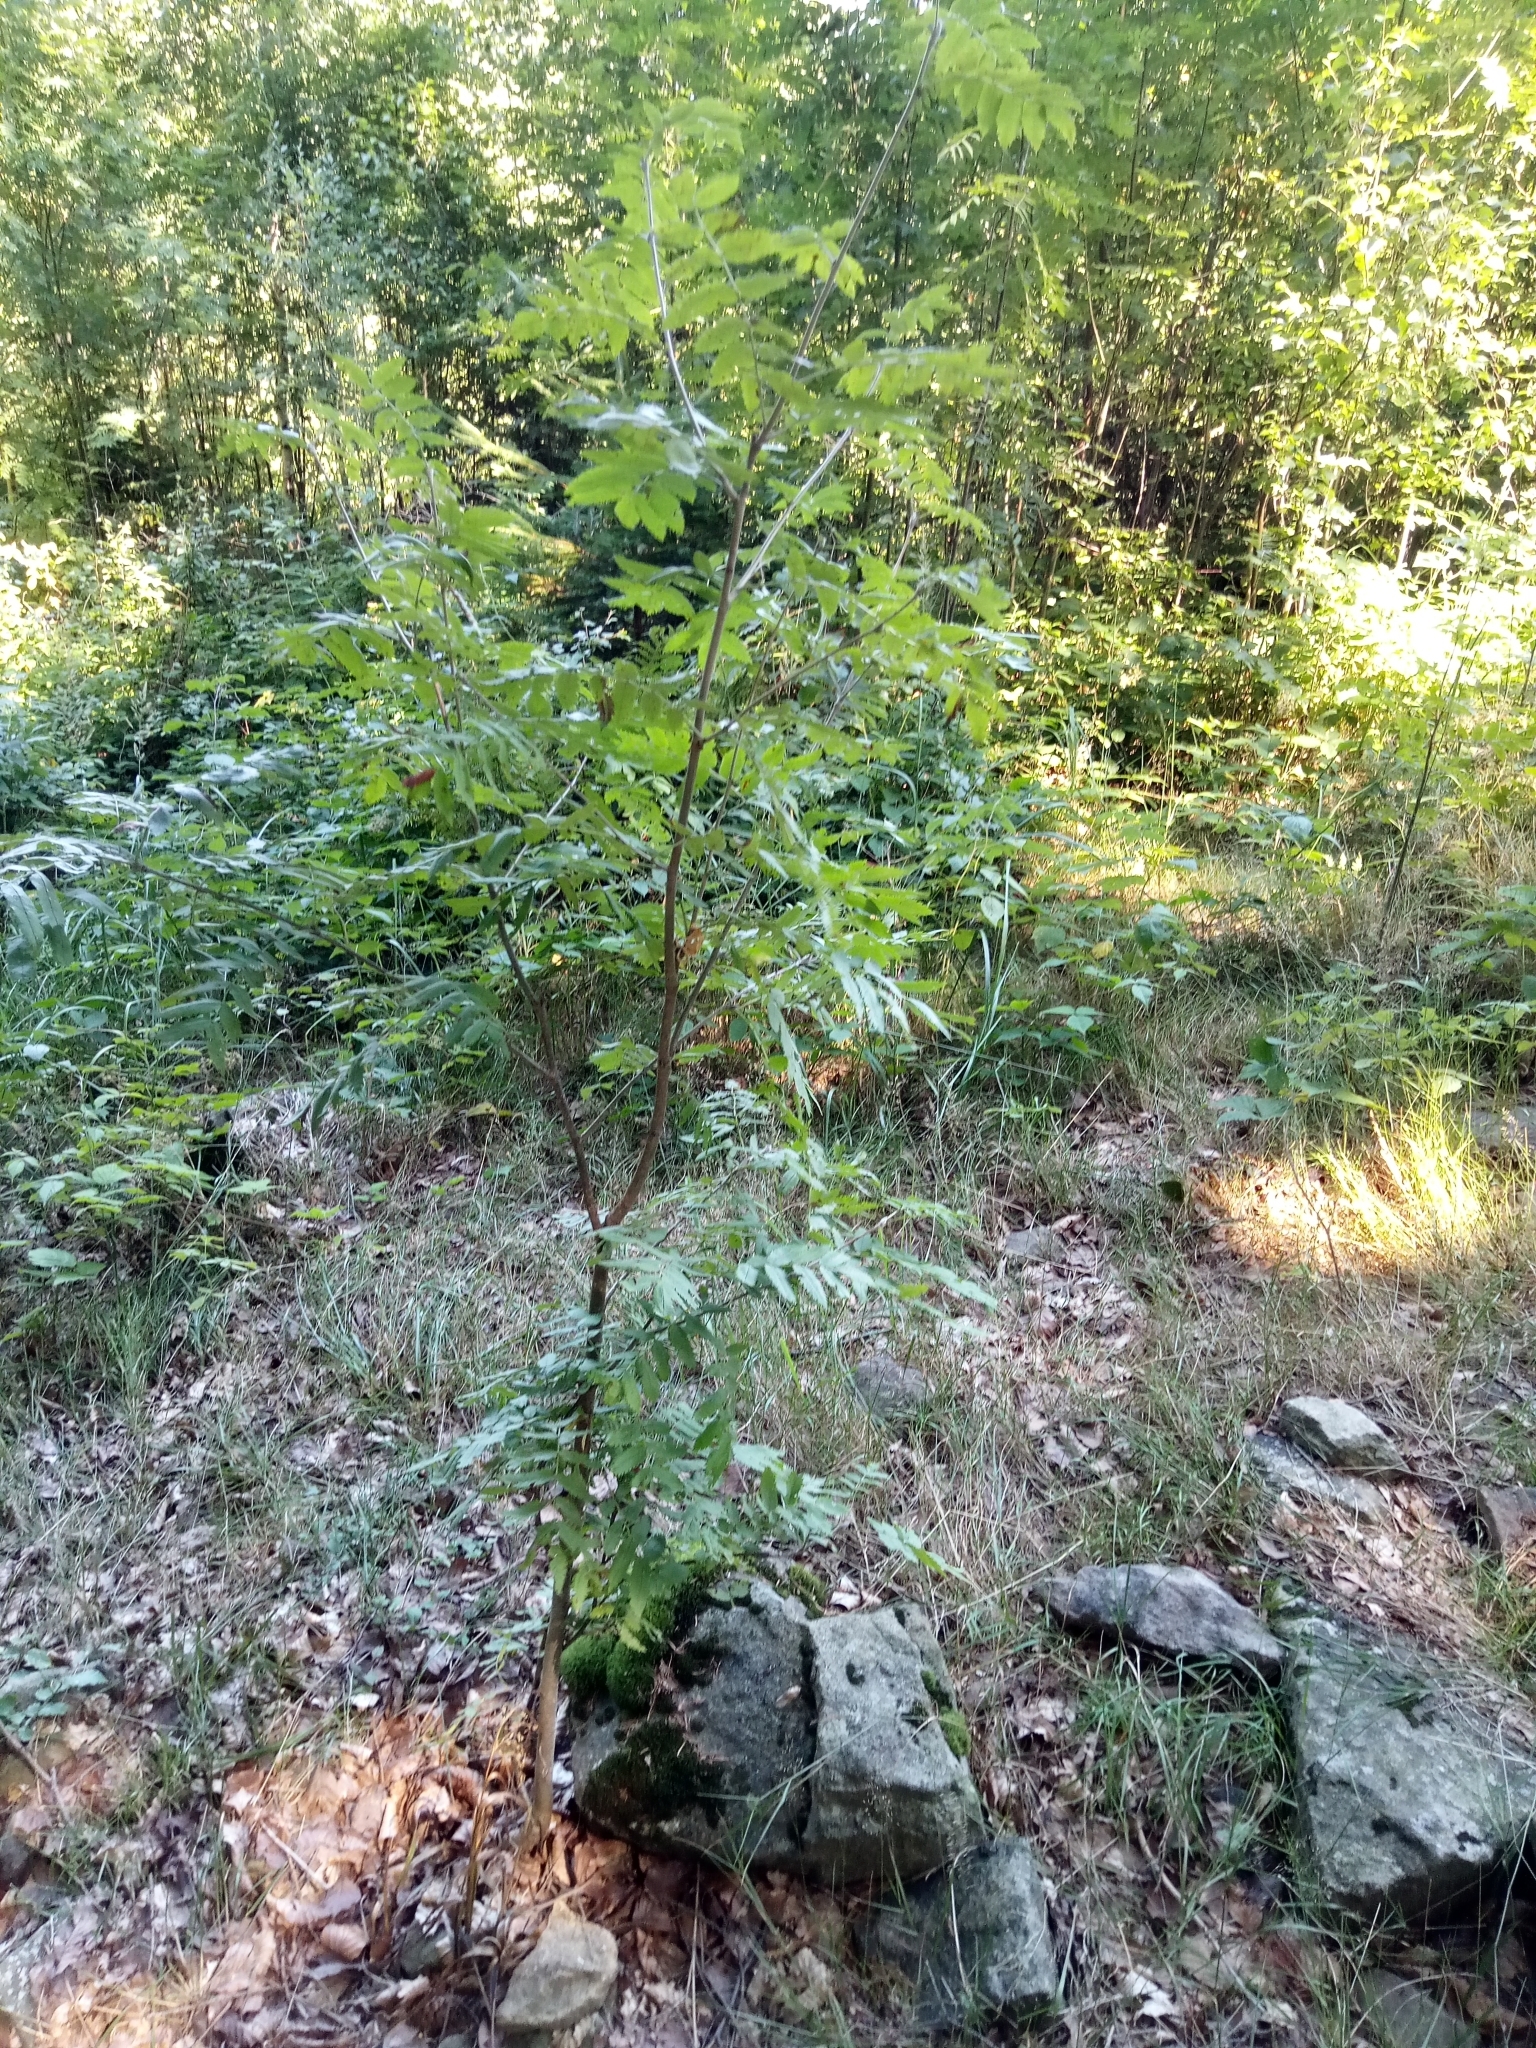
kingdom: Plantae
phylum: Tracheophyta
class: Magnoliopsida
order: Rosales
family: Rosaceae
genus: Sorbus
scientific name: Sorbus aucuparia
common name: Rowan
